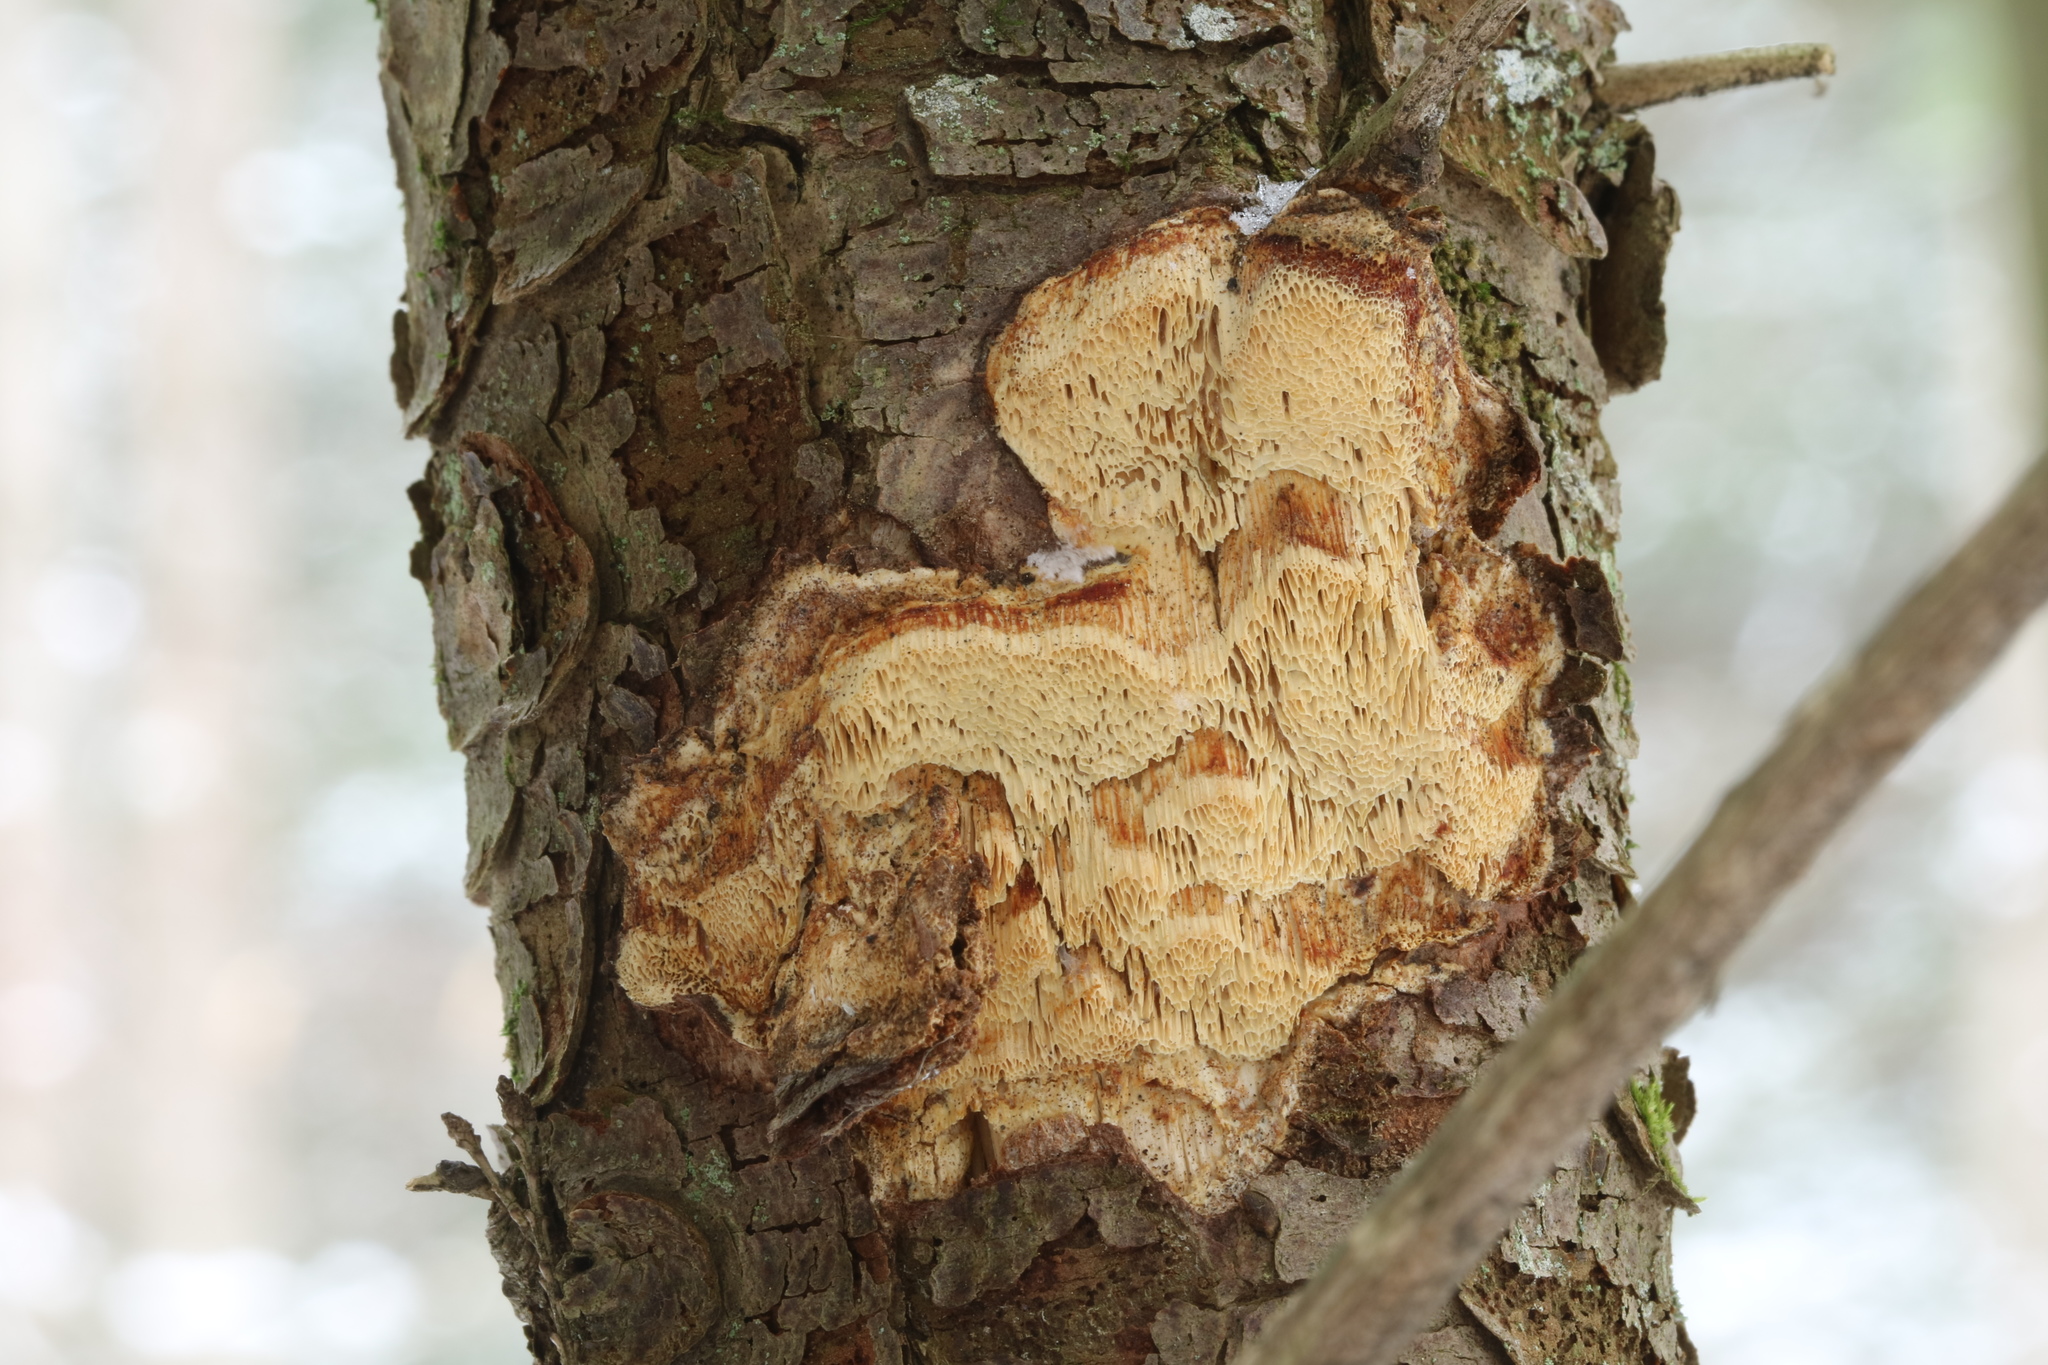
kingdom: Fungi
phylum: Basidiomycota
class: Agaricomycetes
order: Polyporales
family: Polyporaceae
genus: Poriella
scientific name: Poriella subacida
